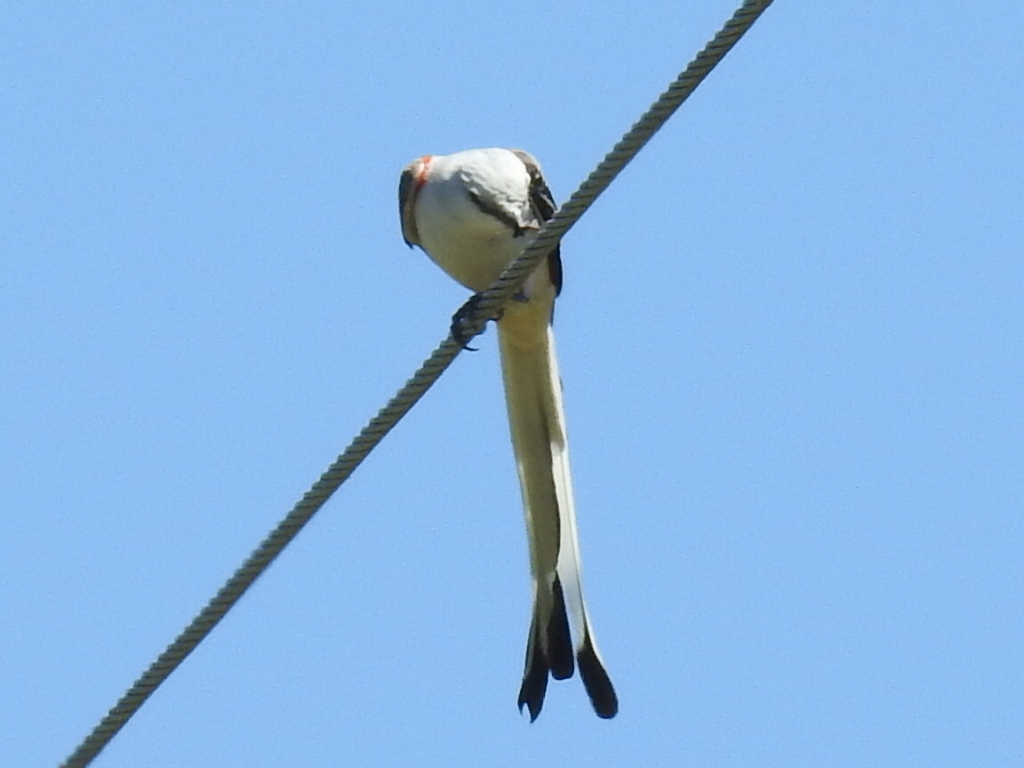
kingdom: Animalia
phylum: Chordata
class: Aves
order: Passeriformes
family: Tyrannidae
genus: Tyrannus
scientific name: Tyrannus forficatus
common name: Scissor-tailed flycatcher
